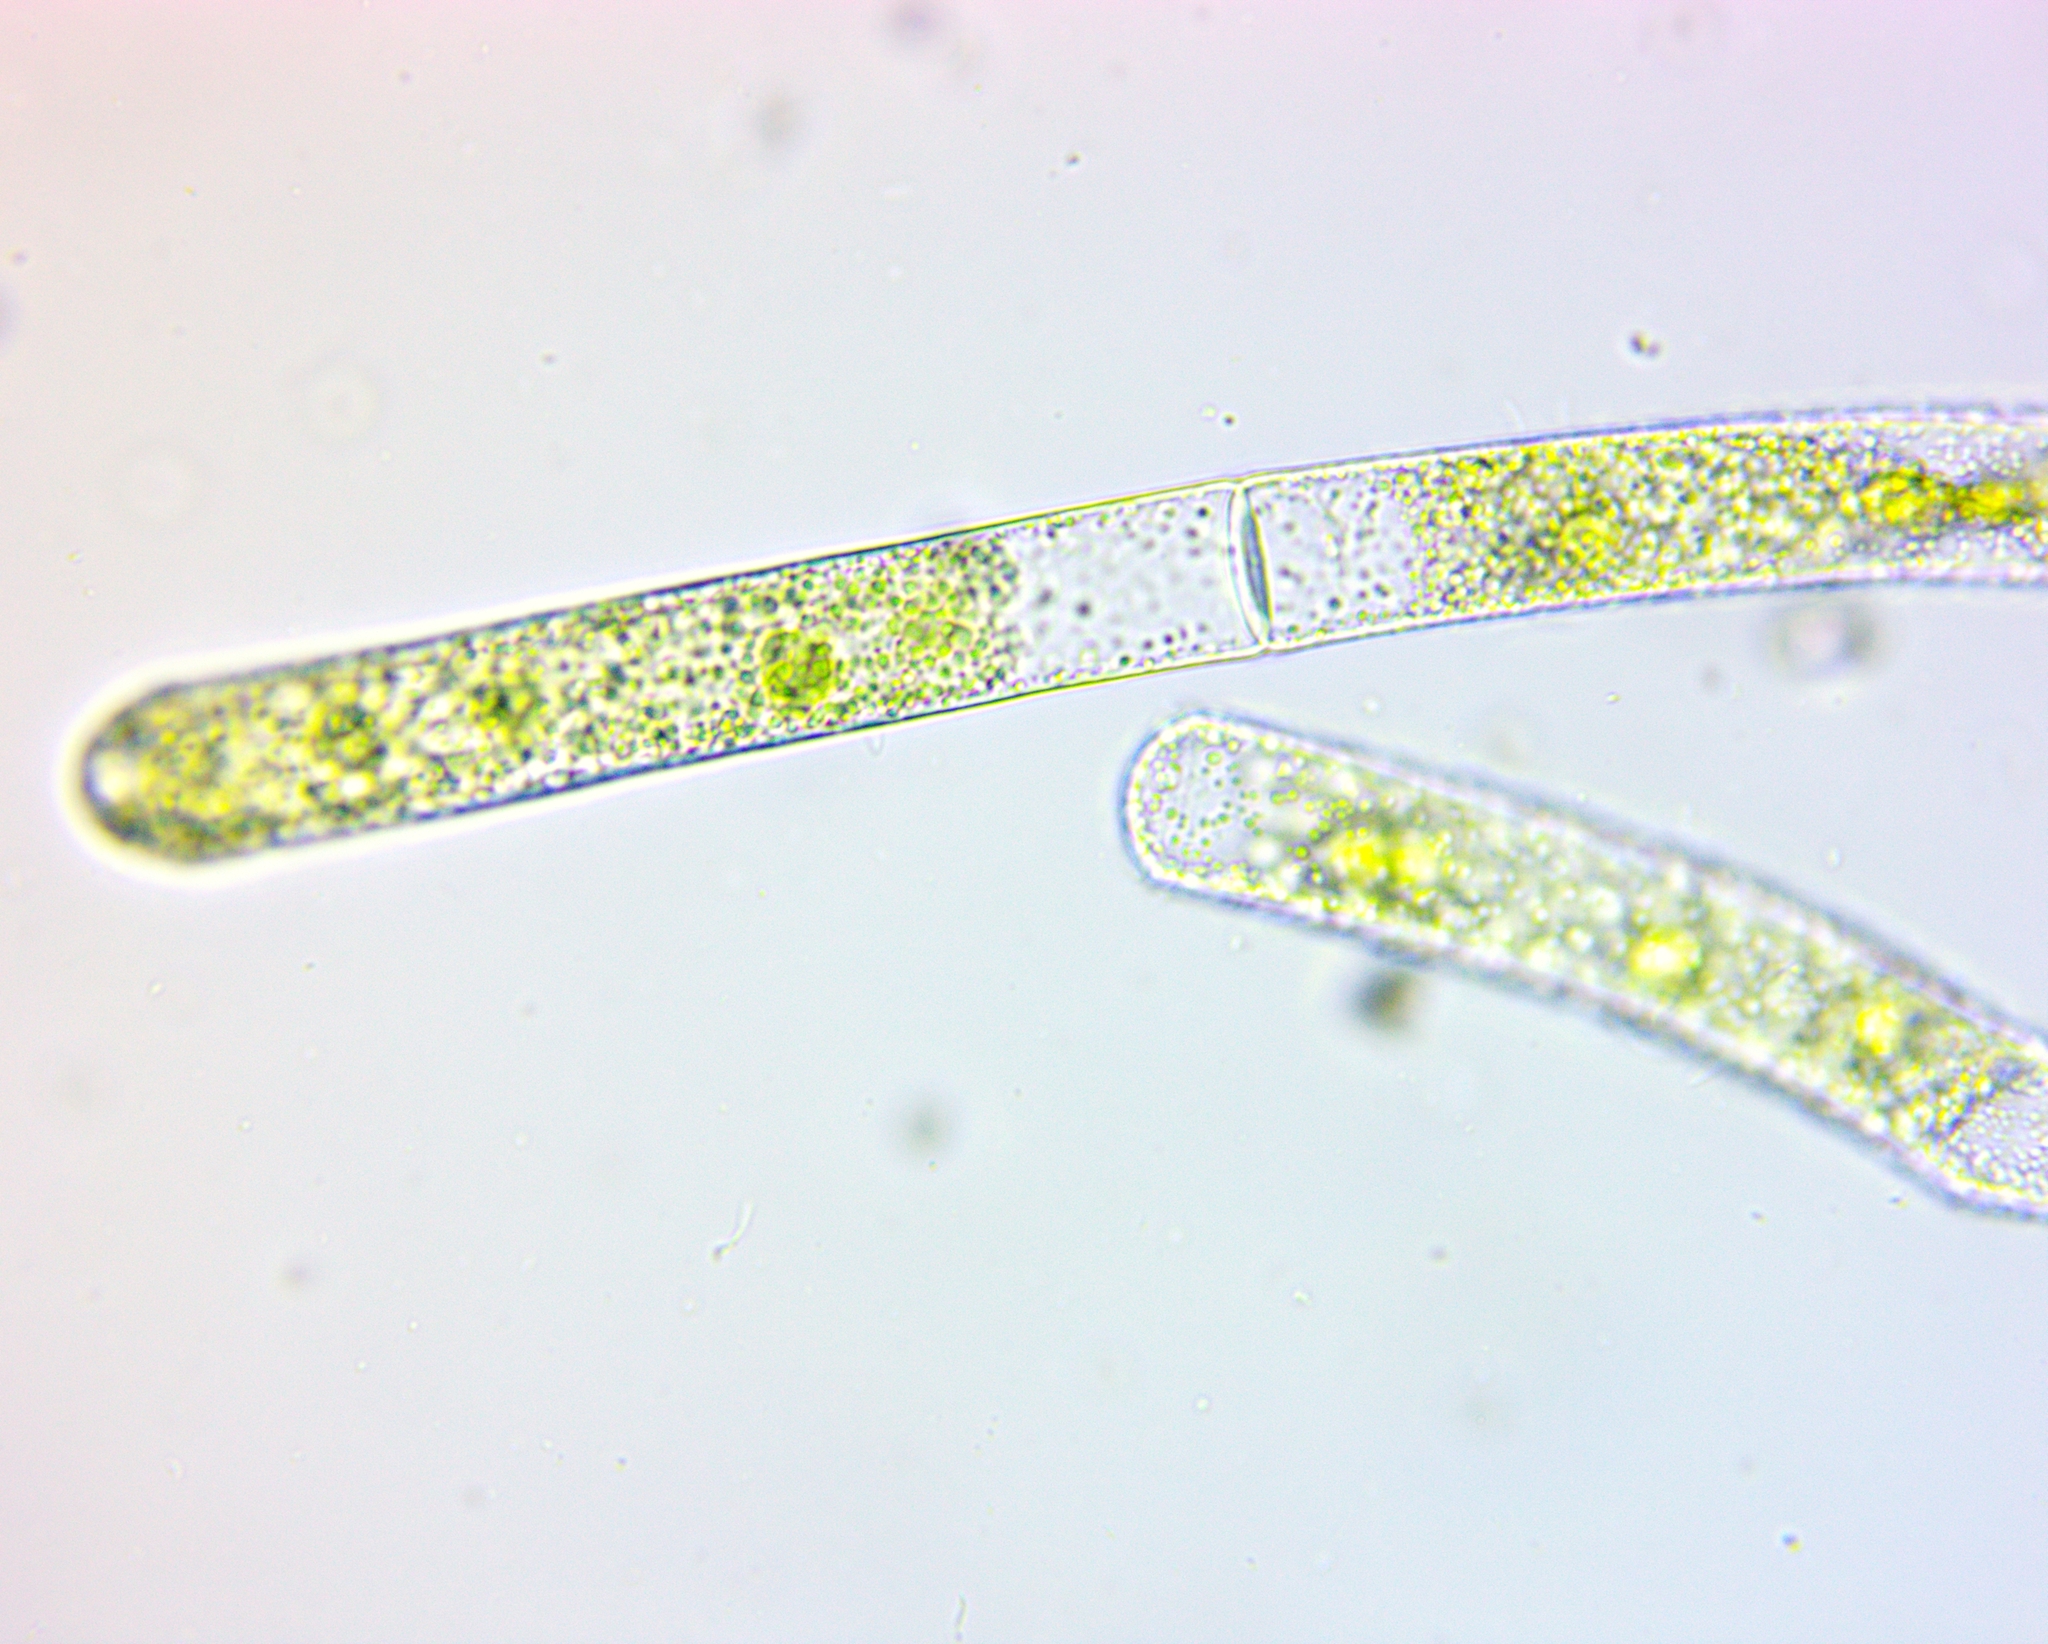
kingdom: Plantae
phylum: Charophyta
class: Zygnematophyceae
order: Zygnematales
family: Zygnemataceae
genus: Mougeotia
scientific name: Mougeotia
